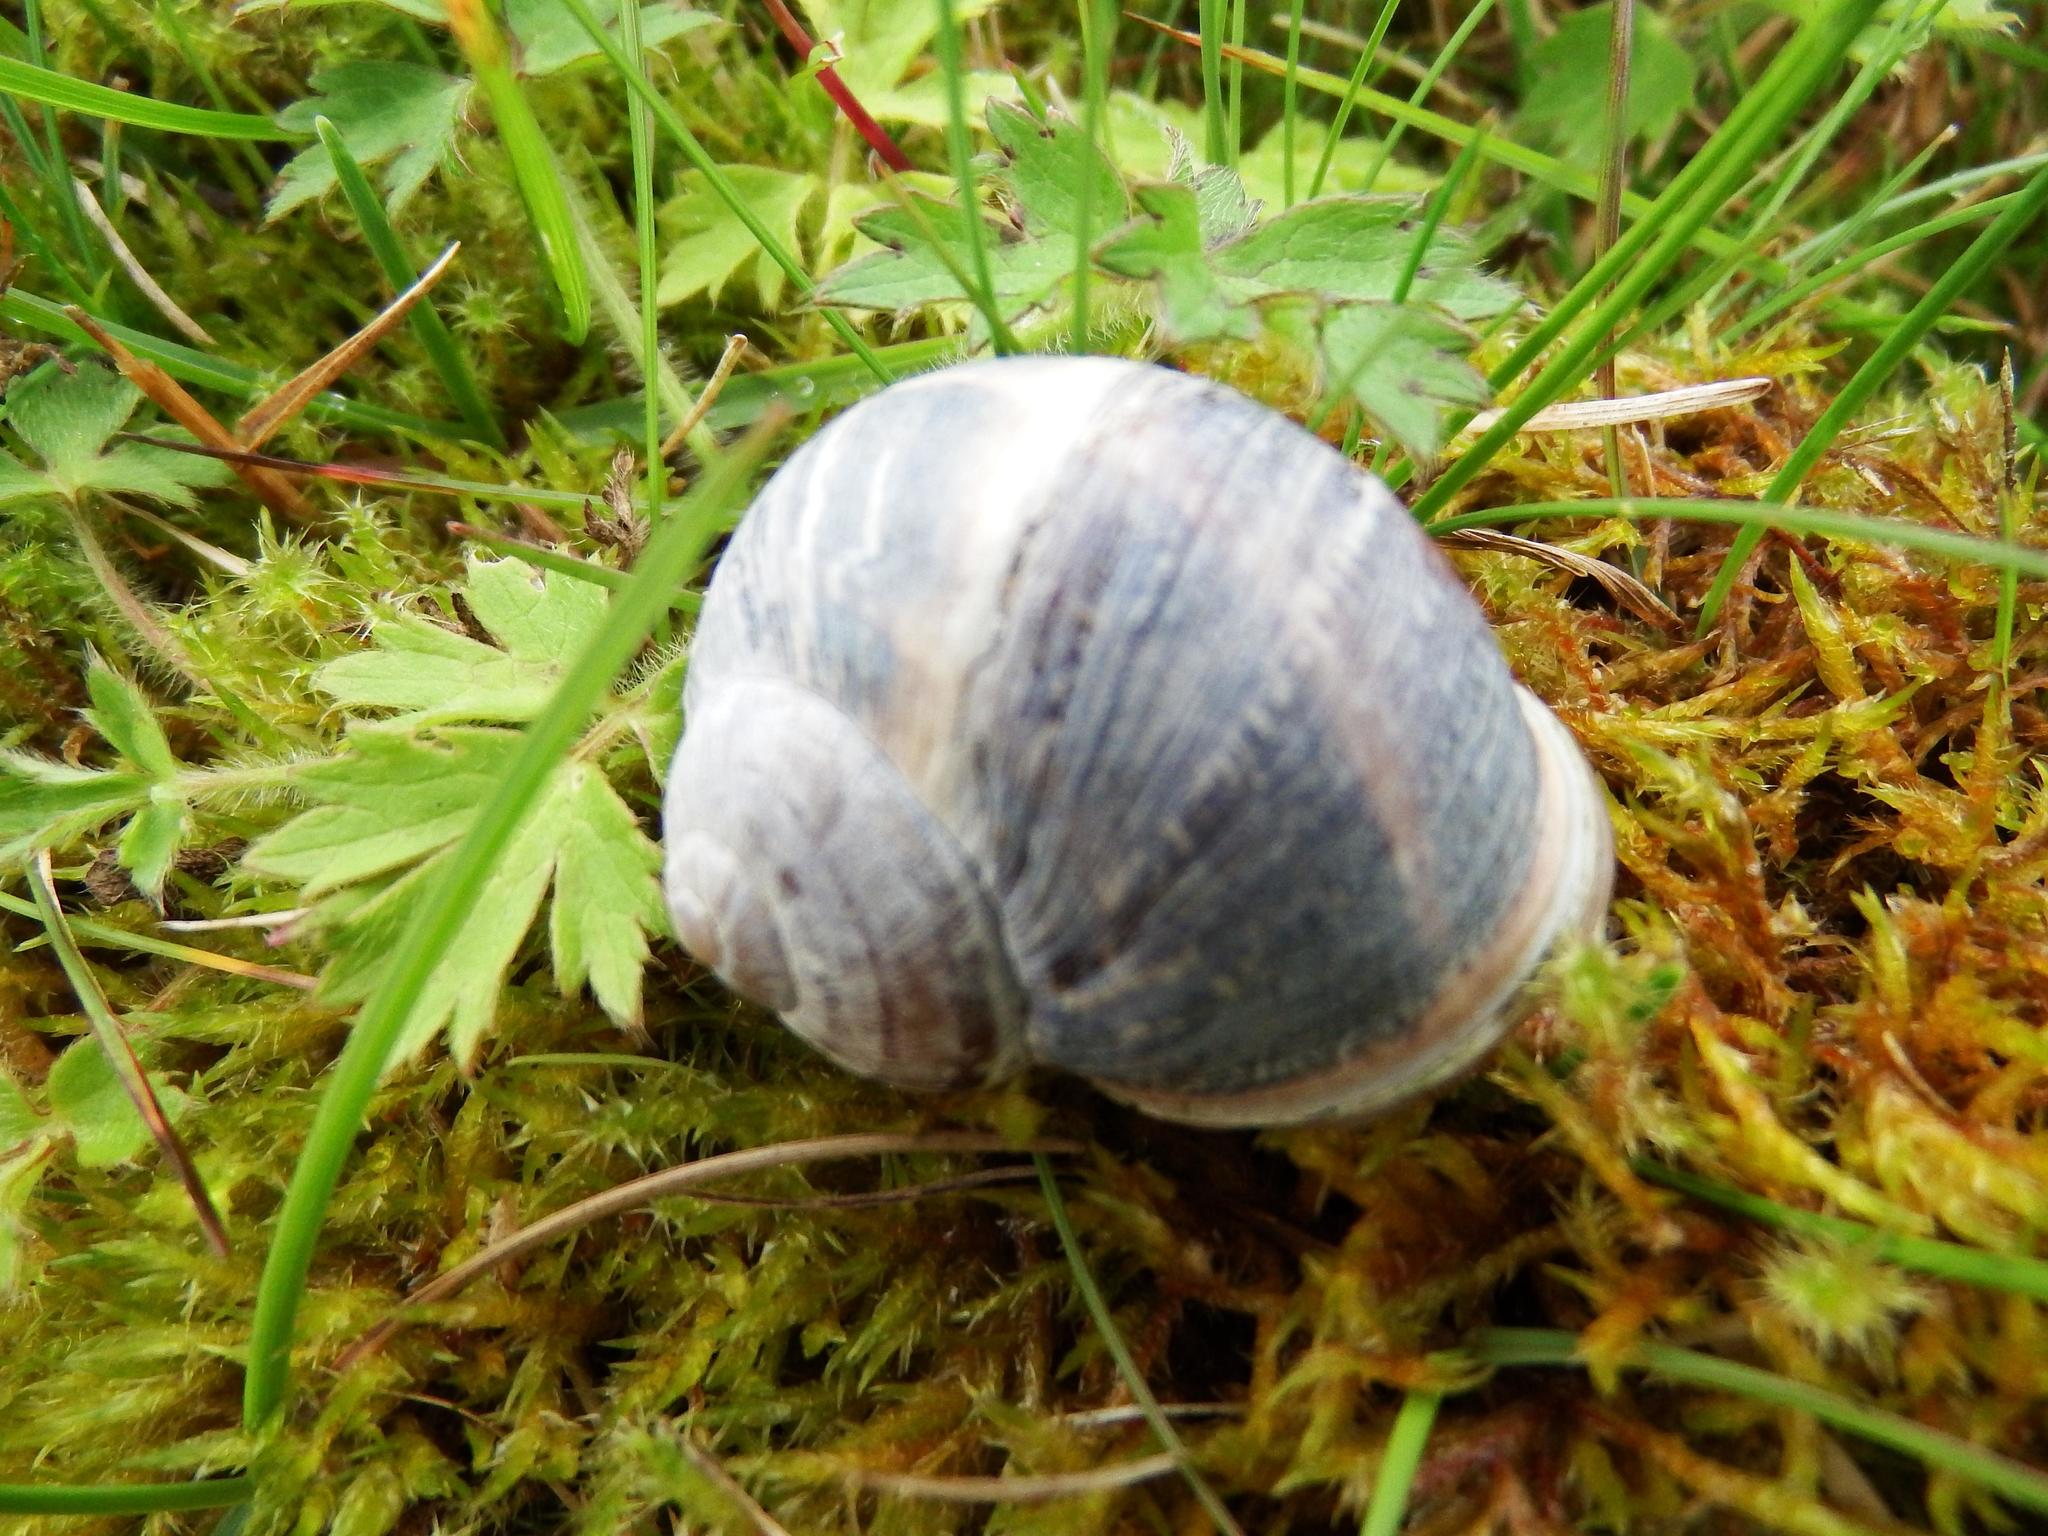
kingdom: Animalia
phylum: Mollusca
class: Gastropoda
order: Stylommatophora
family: Helicidae
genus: Cornu
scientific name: Cornu aspersum
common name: Brown garden snail
